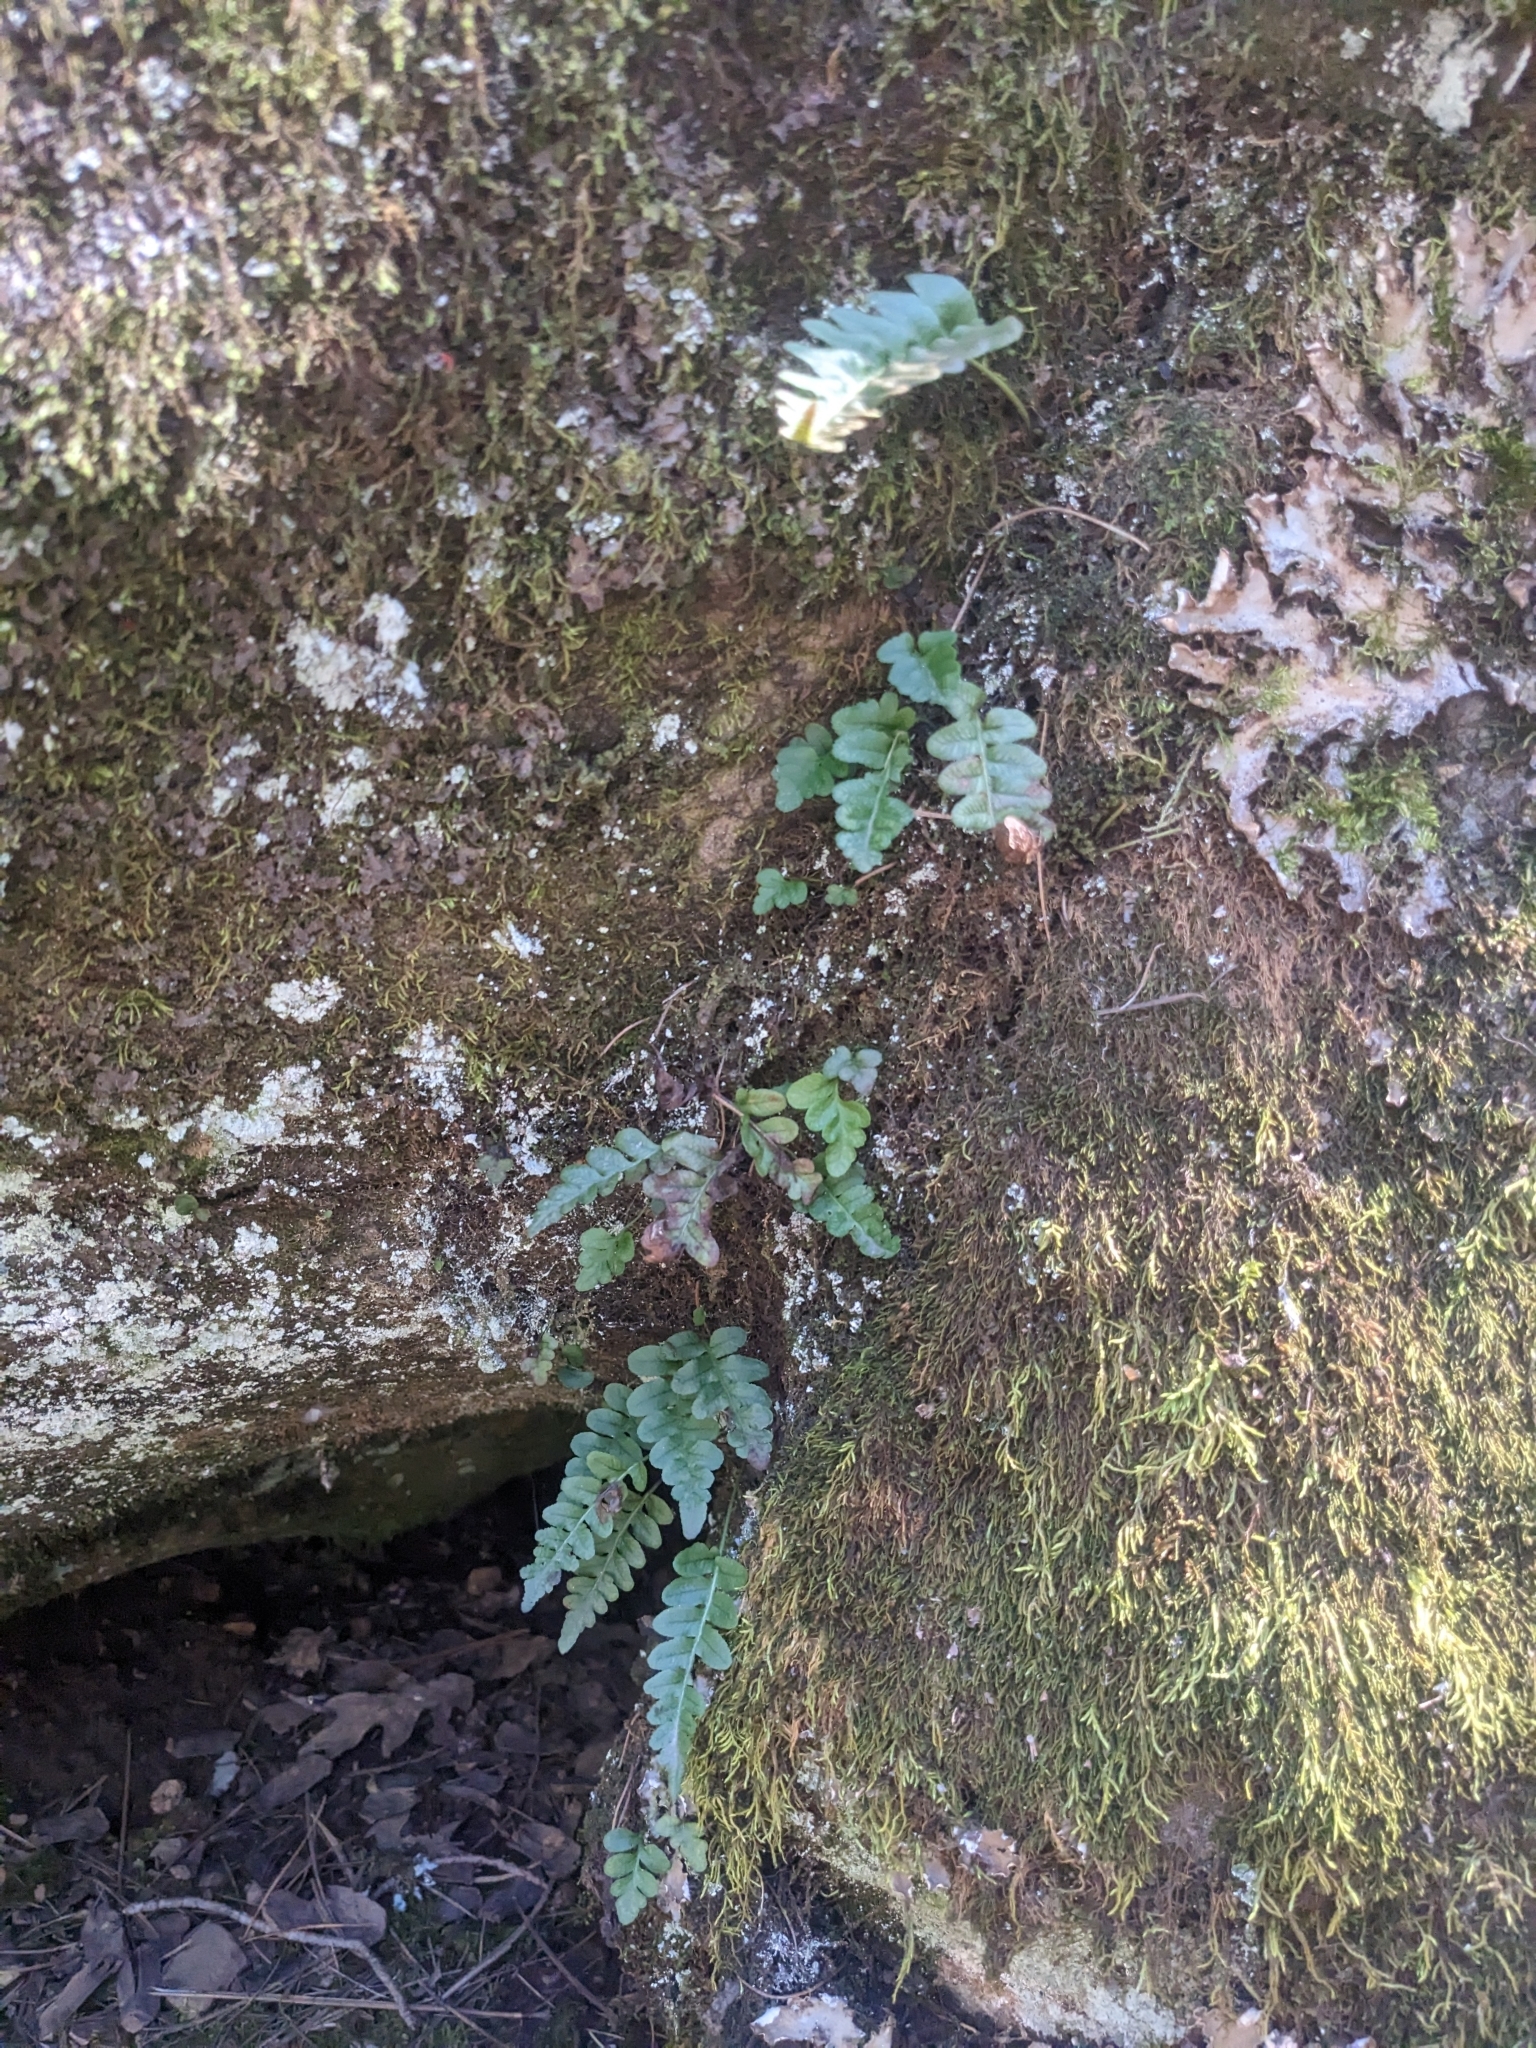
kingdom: Plantae
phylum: Tracheophyta
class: Polypodiopsida
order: Polypodiales
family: Polypodiaceae
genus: Polypodium
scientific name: Polypodium hesperium
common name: Western polypody
